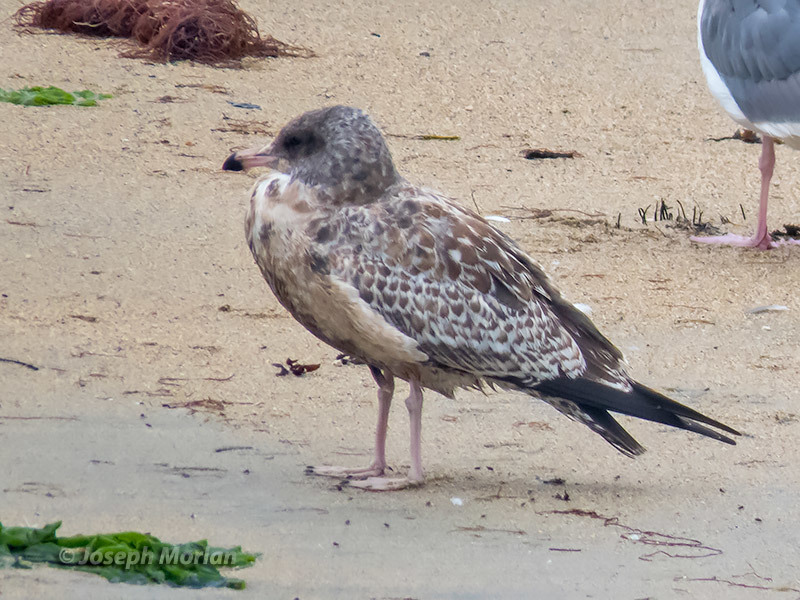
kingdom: Animalia
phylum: Chordata
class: Aves
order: Charadriiformes
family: Laridae
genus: Larus
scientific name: Larus californicus
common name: California gull
